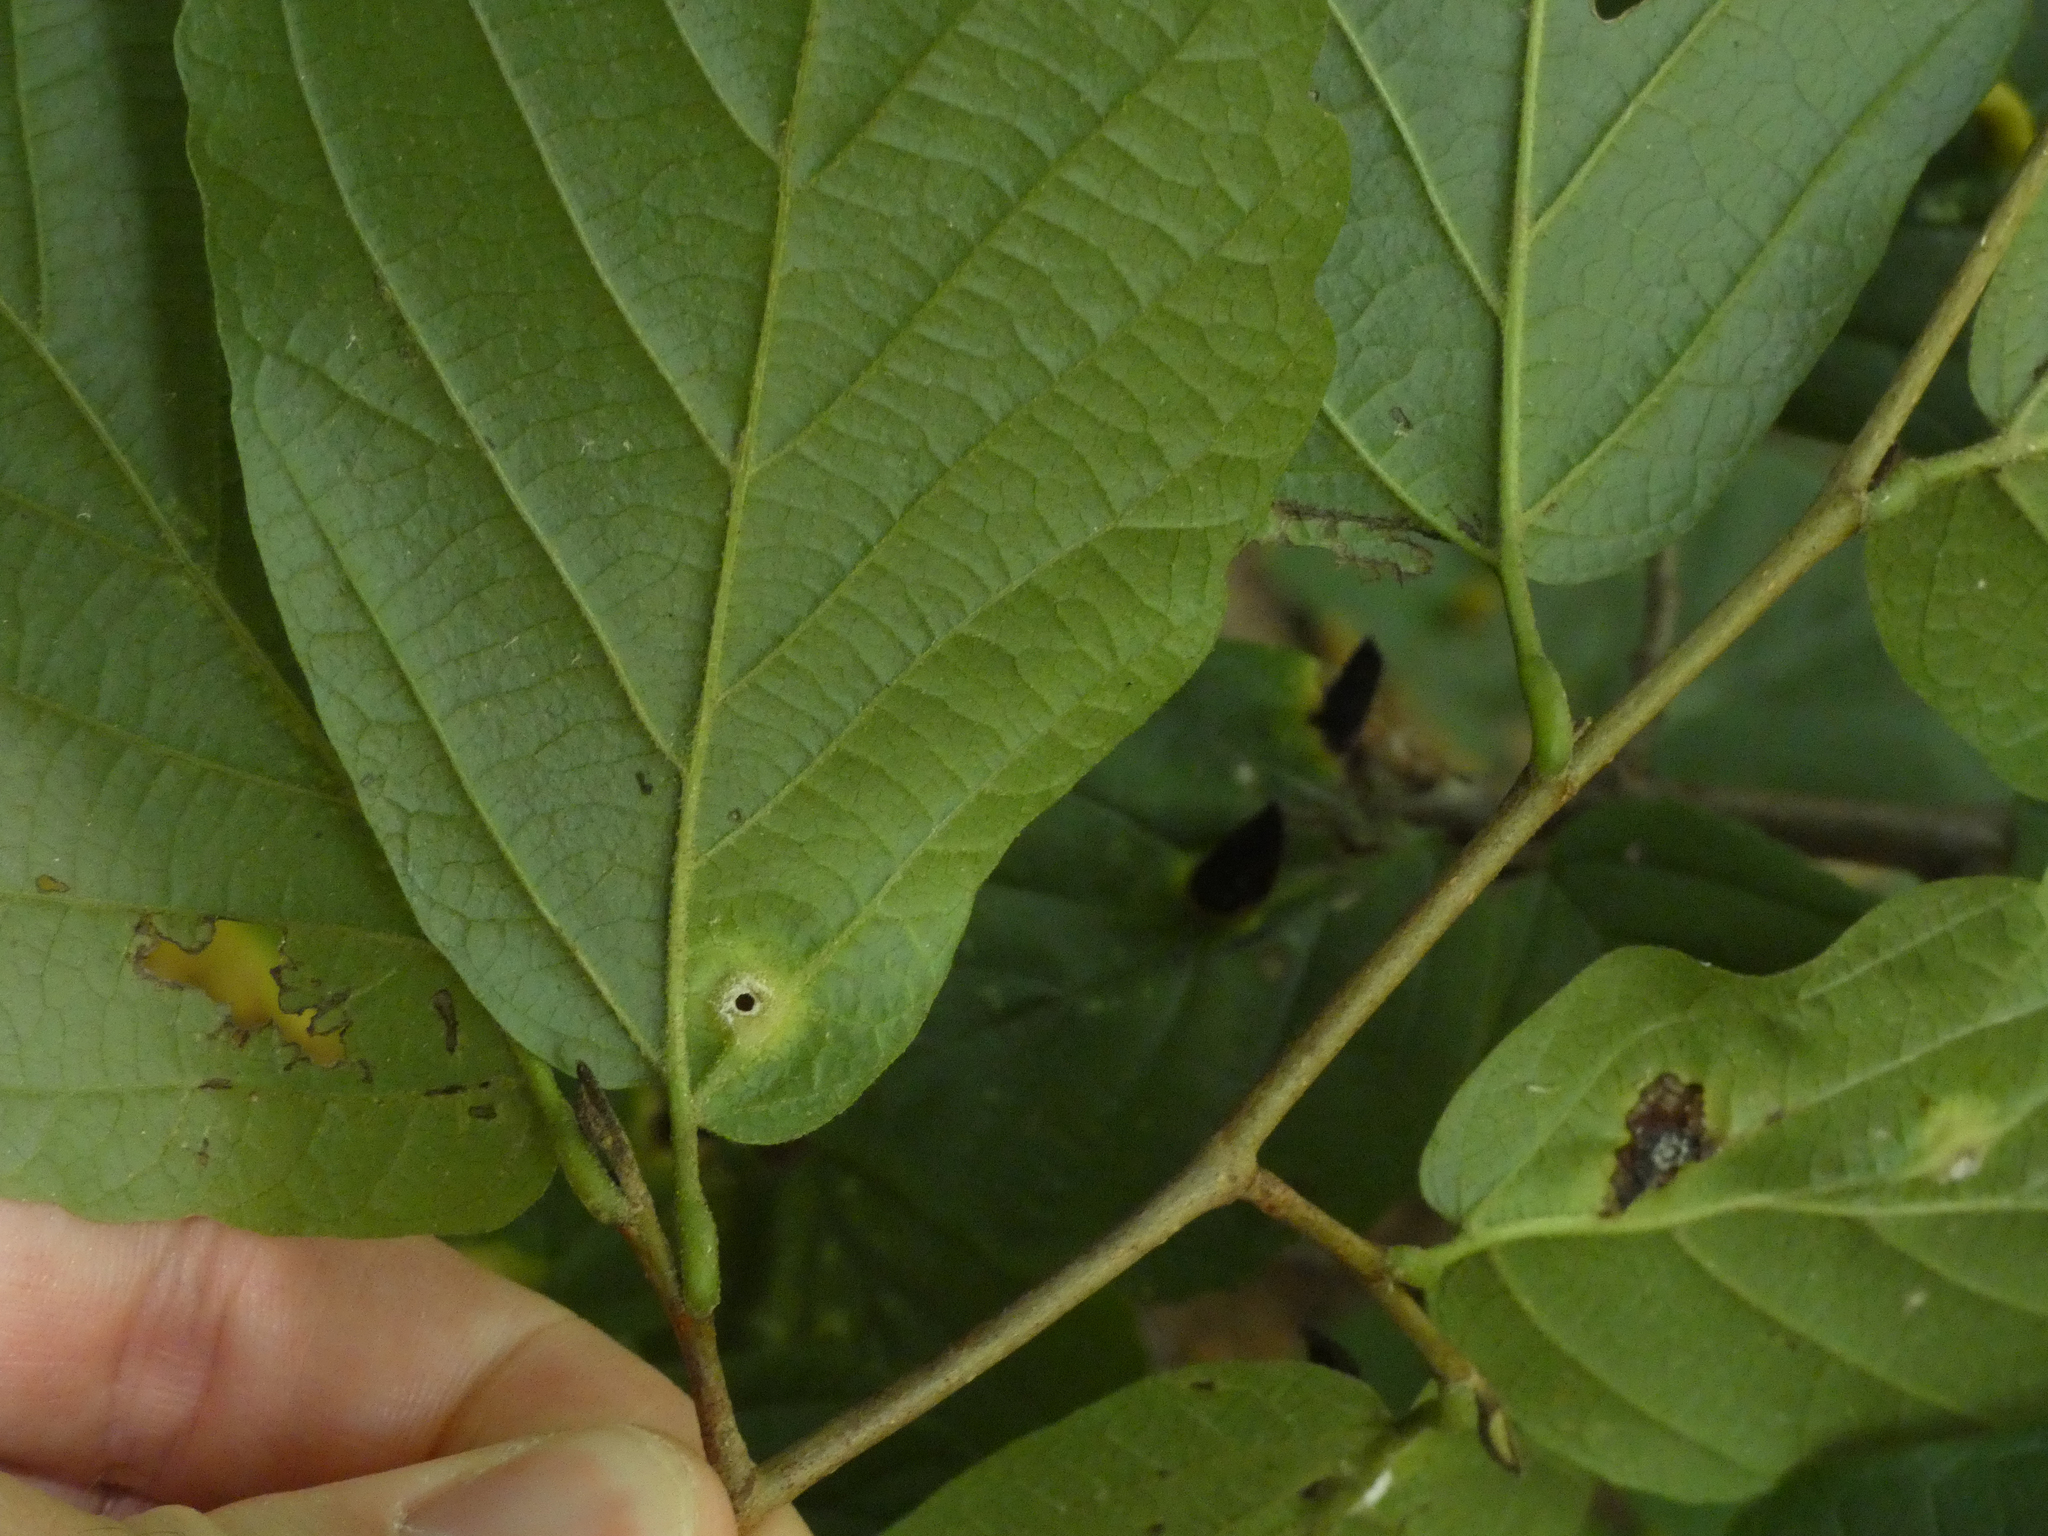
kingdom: Animalia
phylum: Arthropoda
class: Insecta
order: Hemiptera
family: Aphididae
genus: Hormaphis
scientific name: Hormaphis hamamelidis
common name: Witch-hazel cone gall aphid
